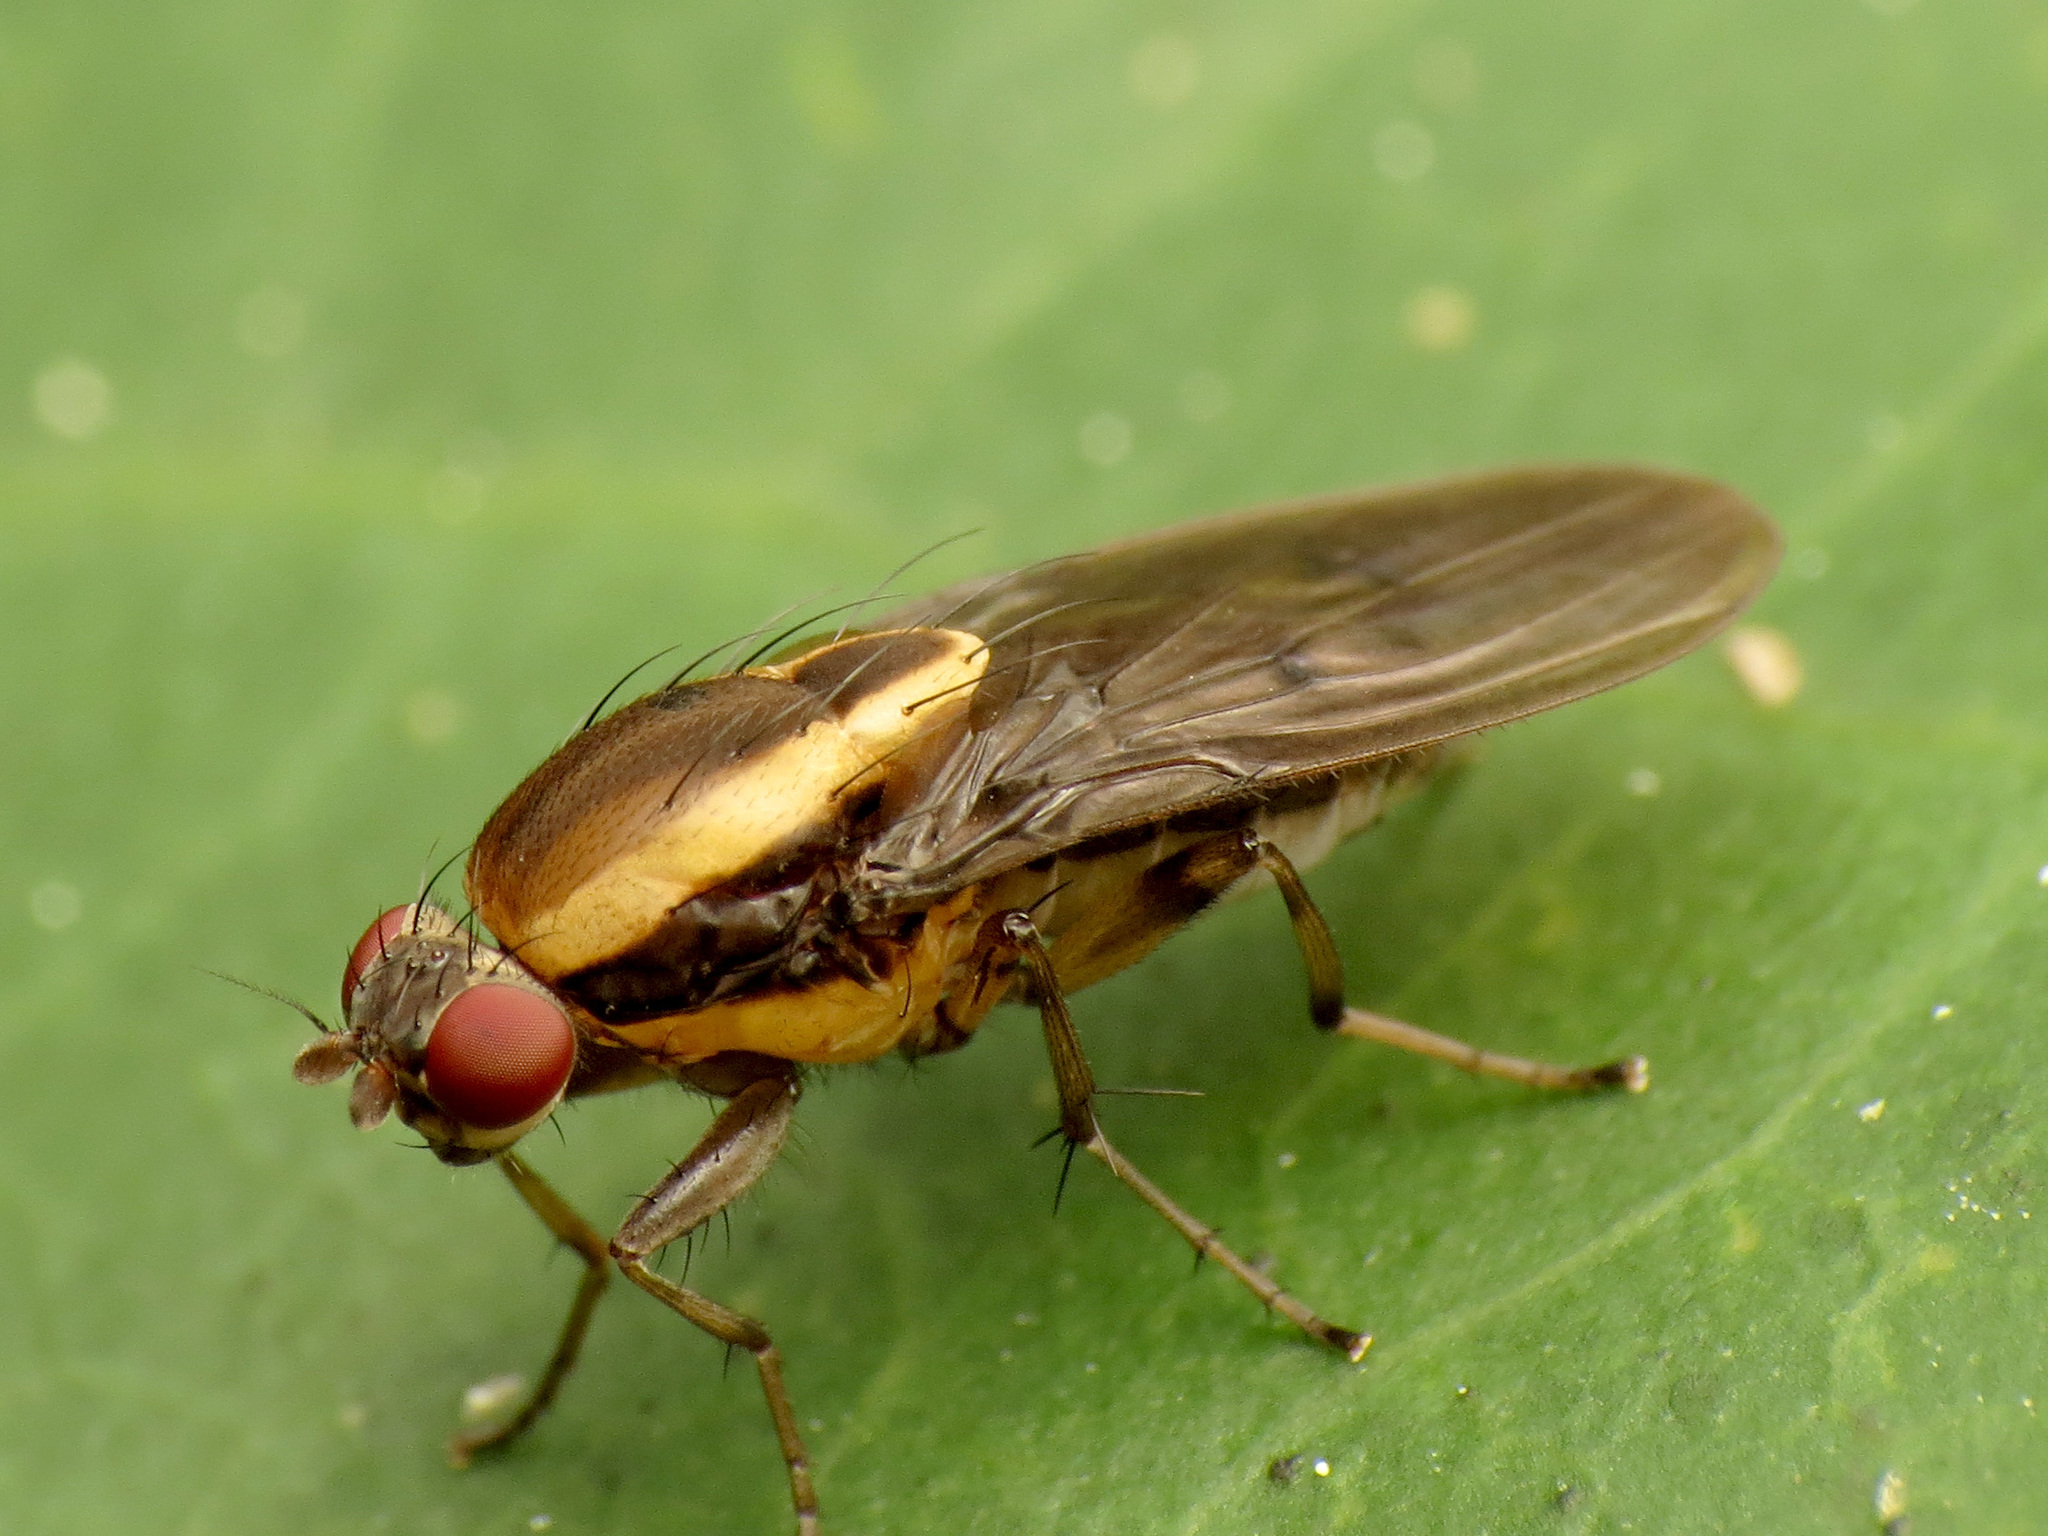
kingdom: Animalia
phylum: Arthropoda
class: Insecta
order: Diptera
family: Heleomyzidae
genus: Allophylopsis
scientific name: Allophylopsis scutellata
